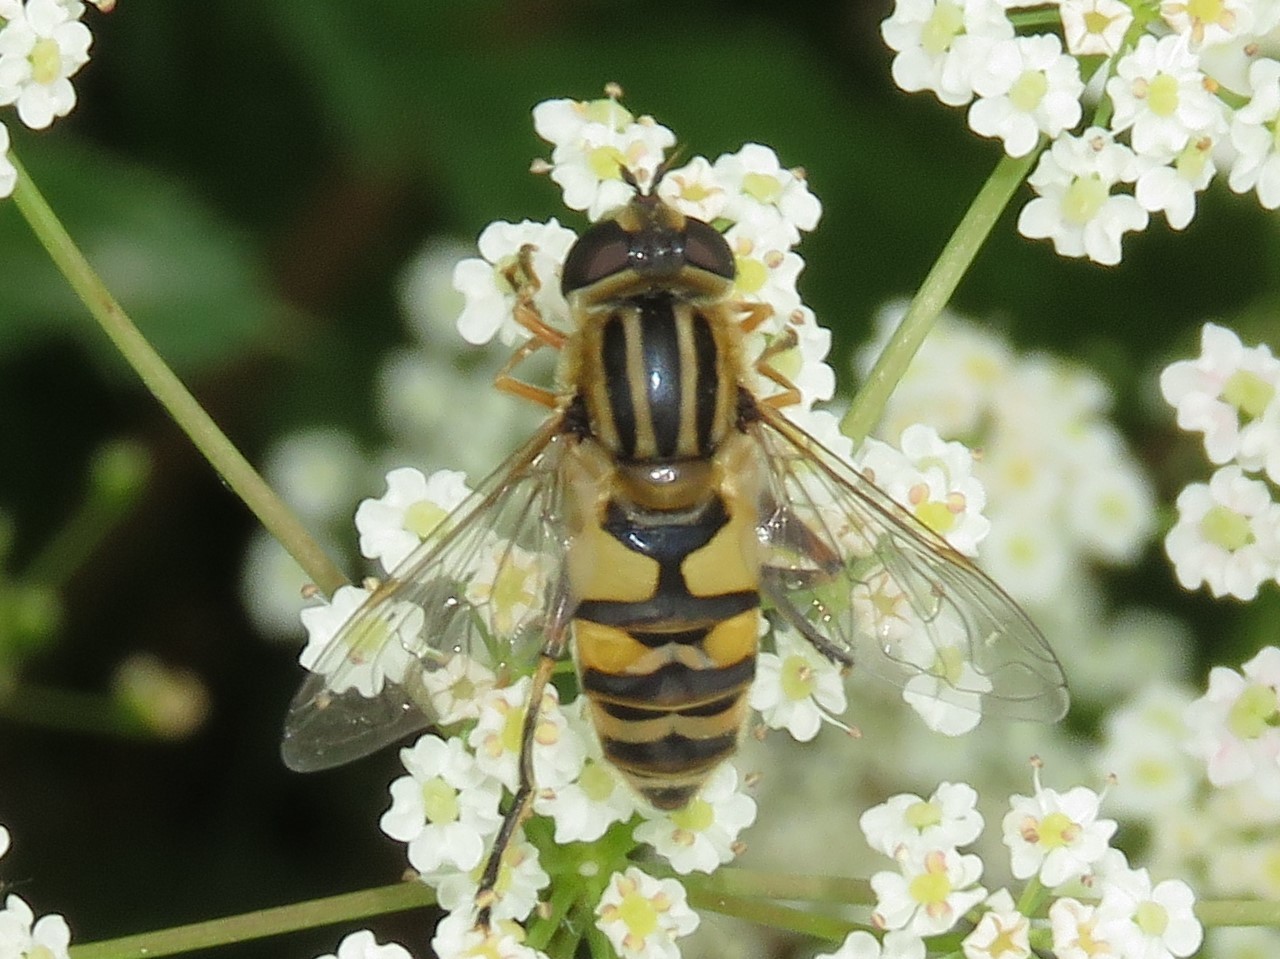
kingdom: Animalia
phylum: Arthropoda
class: Insecta
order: Diptera
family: Syrphidae
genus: Helophilus
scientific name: Helophilus latifrons
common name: Broad-headed marsh fly
